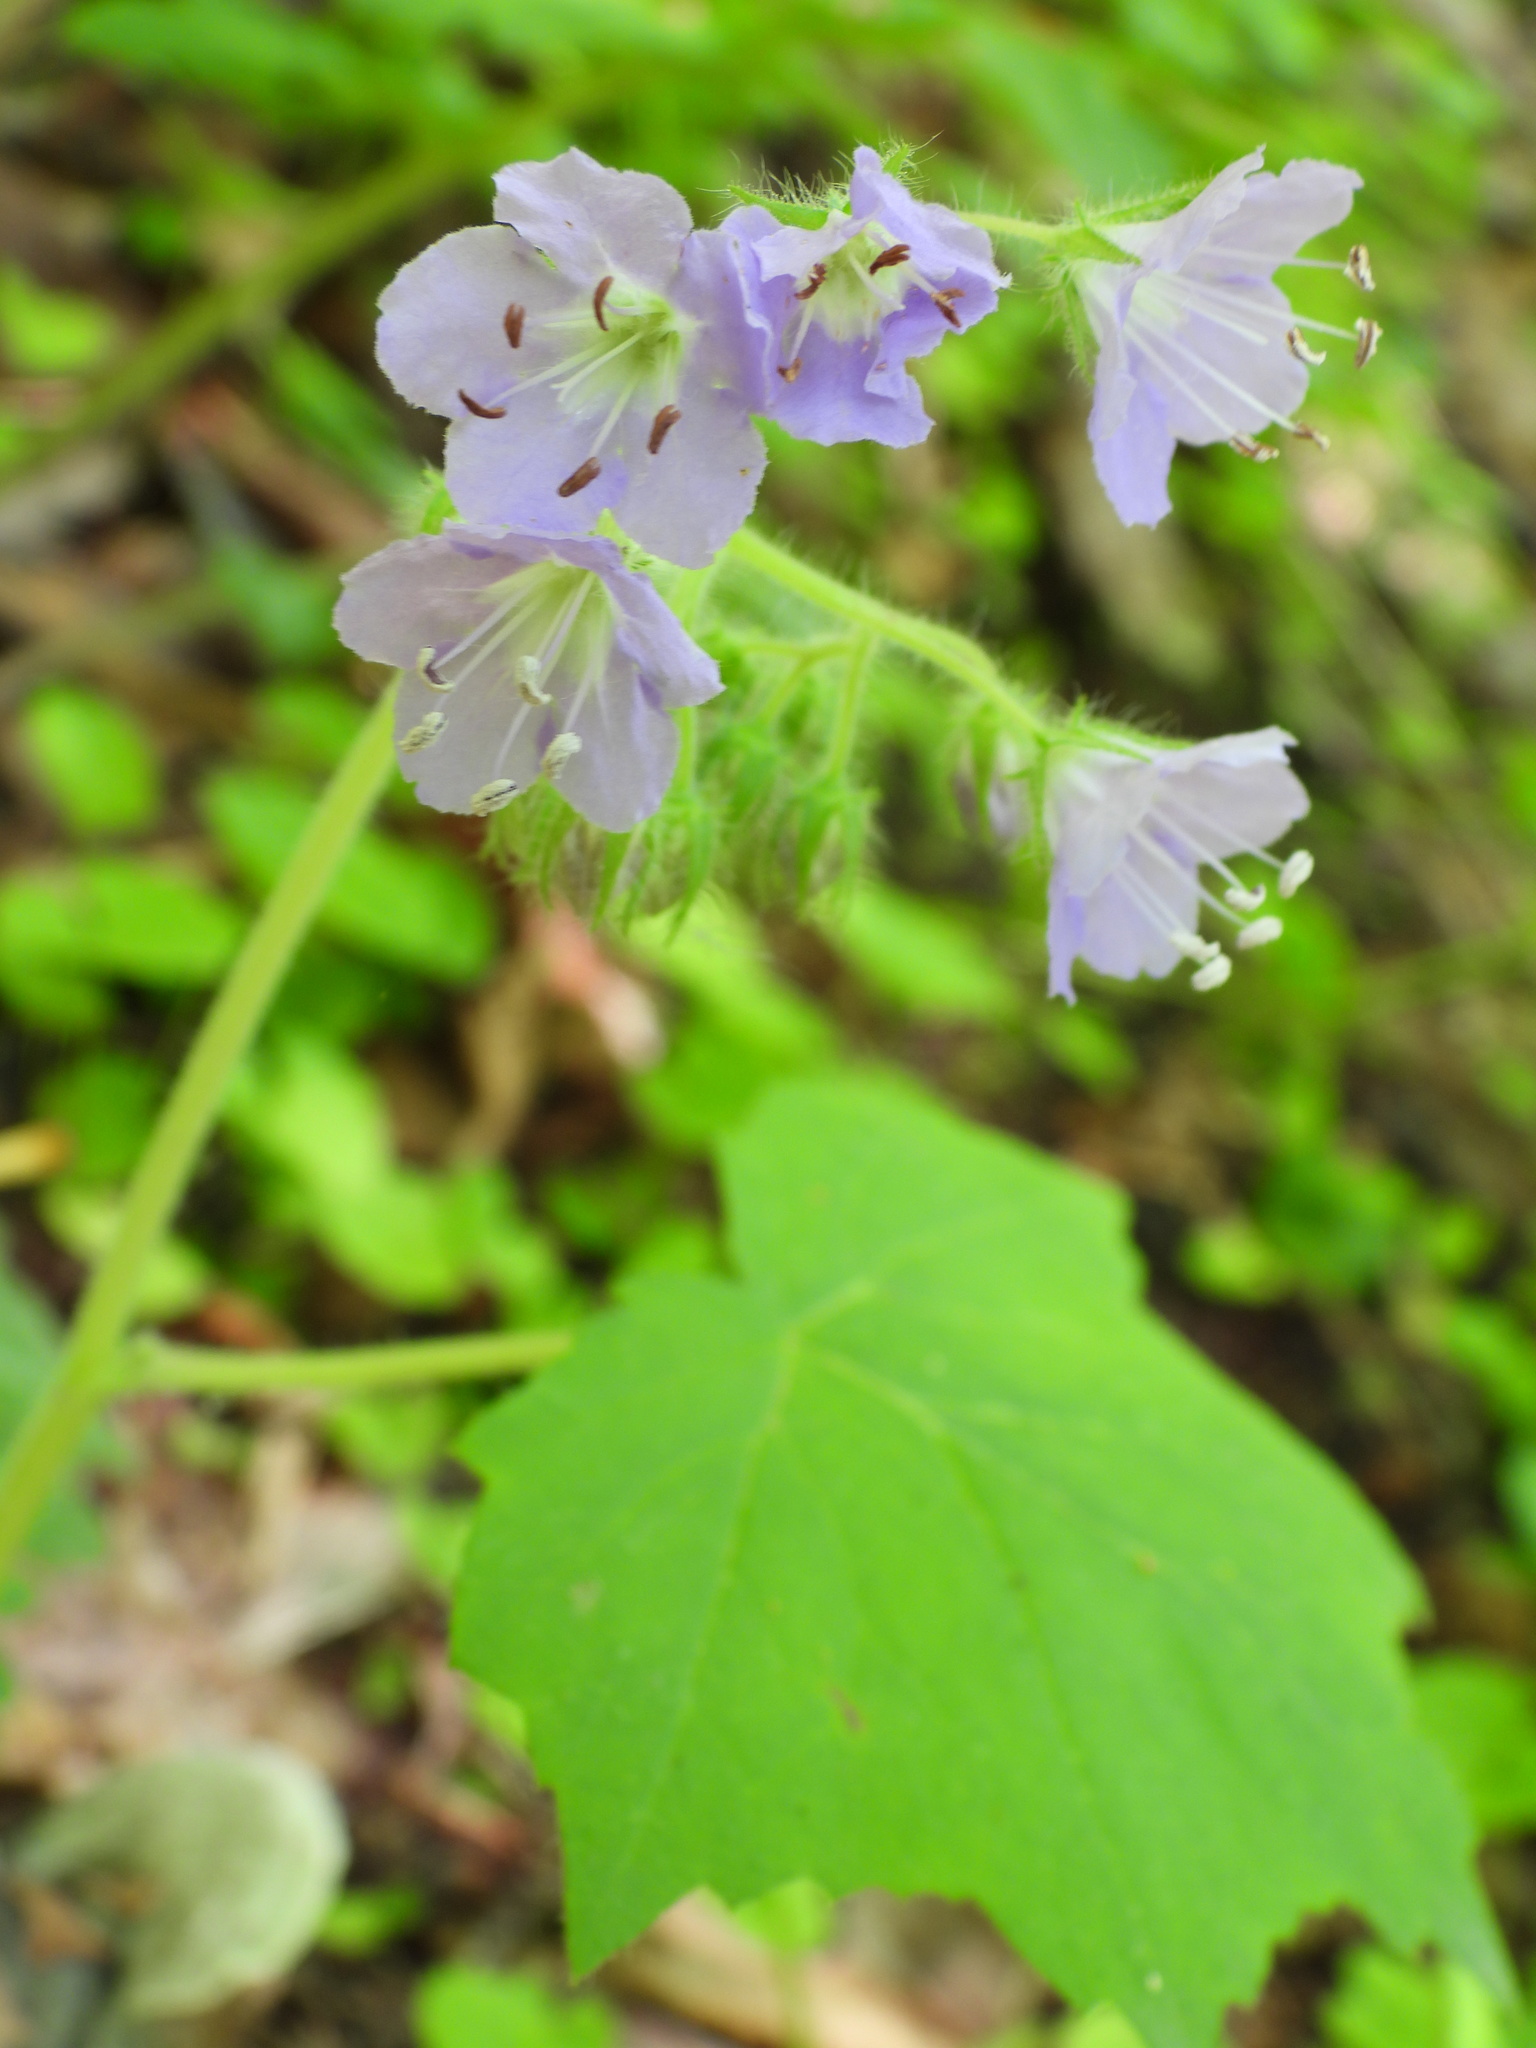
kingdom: Plantae
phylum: Tracheophyta
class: Magnoliopsida
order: Boraginales
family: Hydrophyllaceae
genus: Hydrophyllum
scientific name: Hydrophyllum appendiculatum
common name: Appendaged waterleaf
